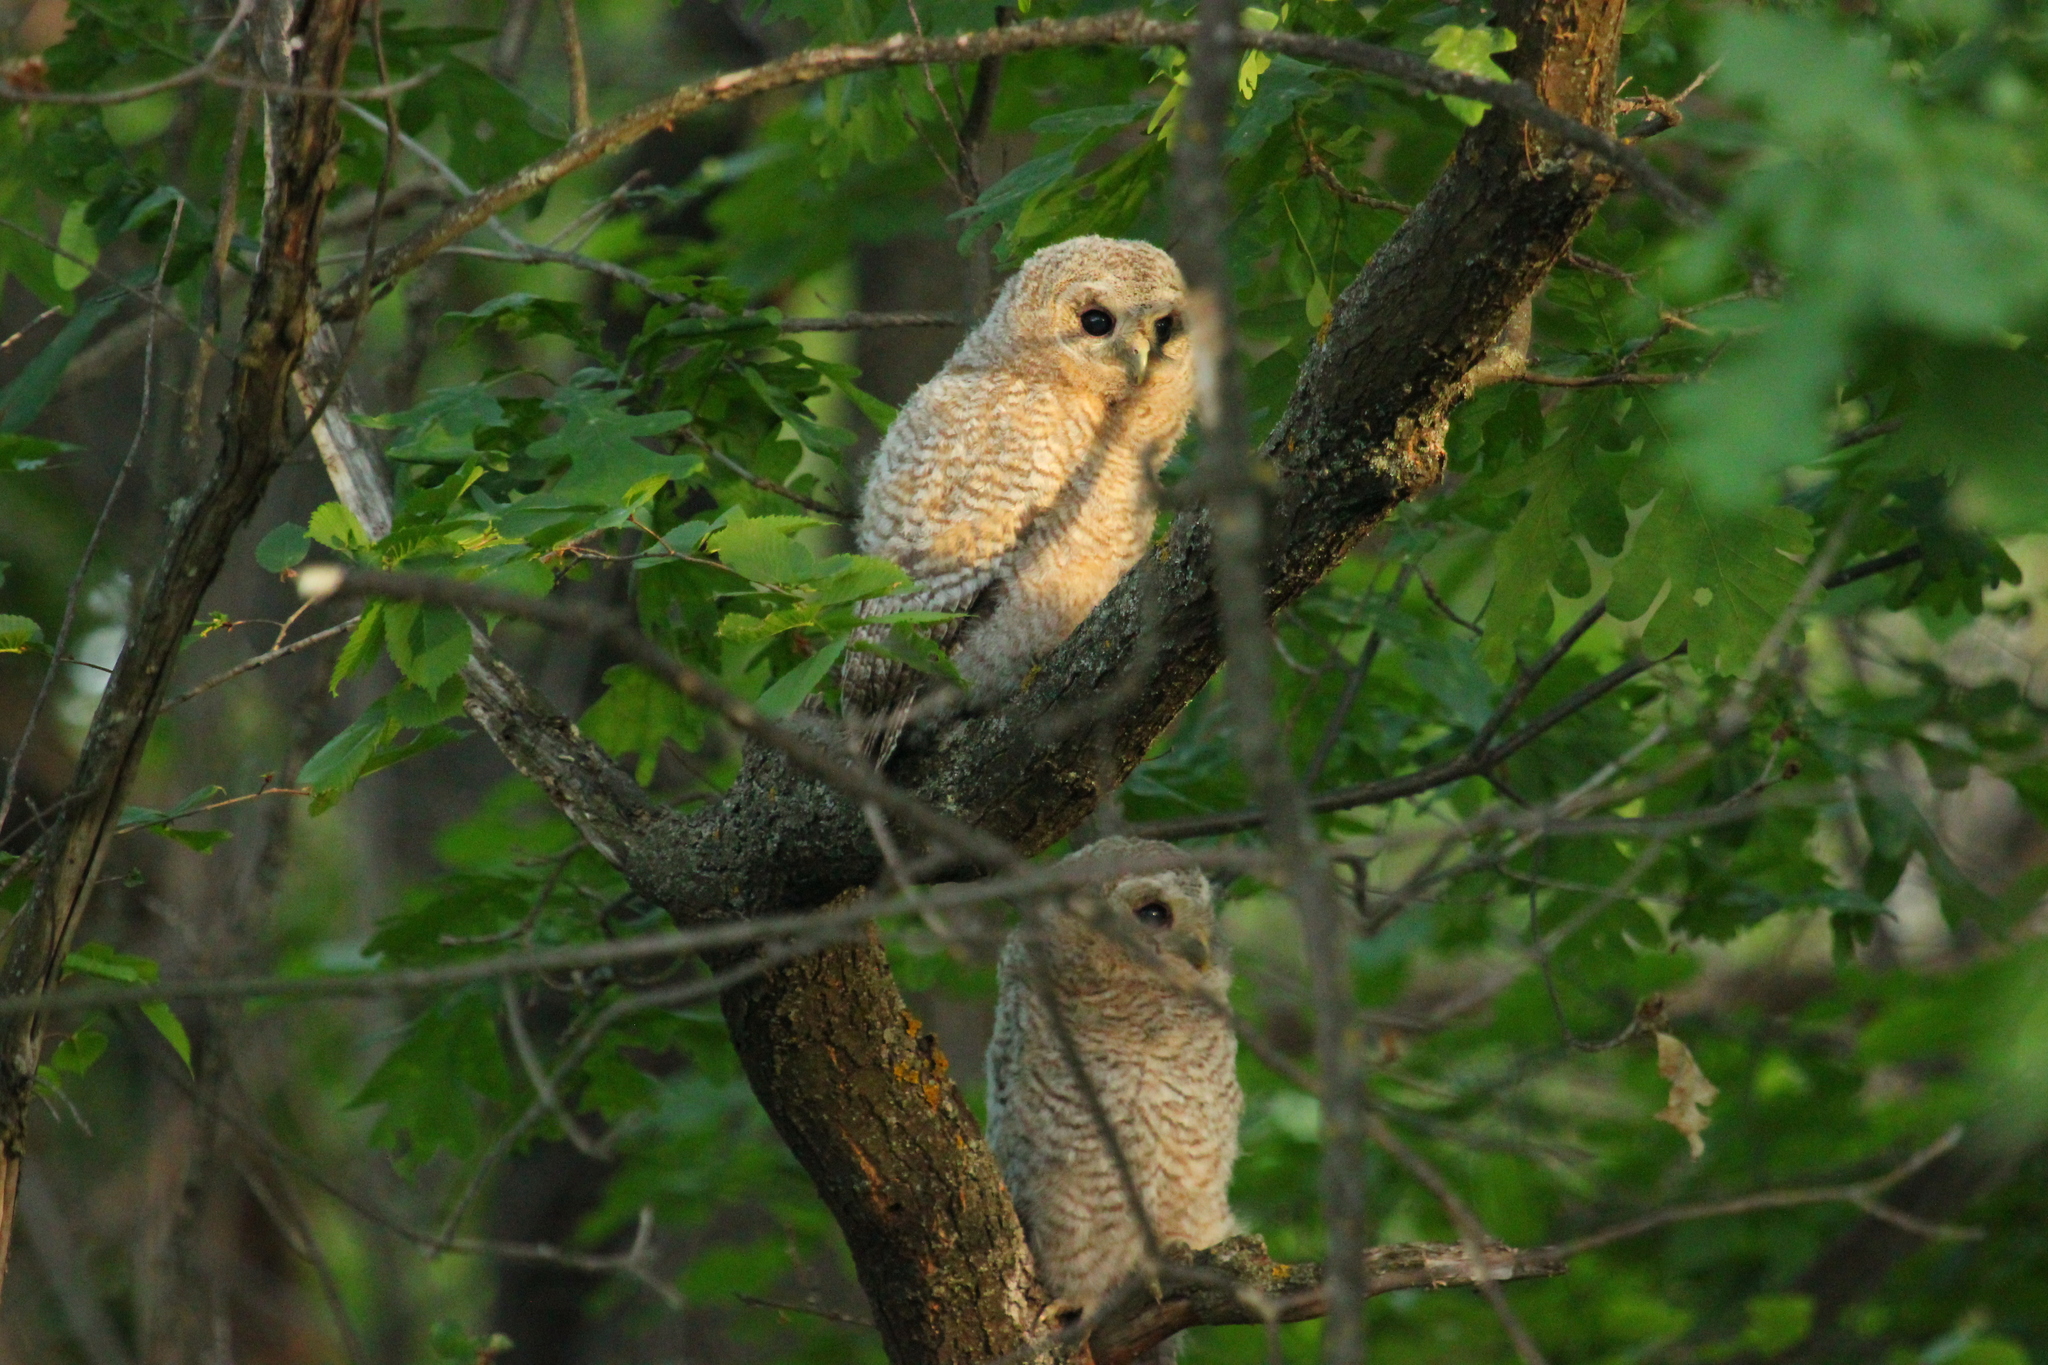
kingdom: Animalia
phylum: Chordata
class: Aves
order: Strigiformes
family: Strigidae
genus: Strix
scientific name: Strix aluco
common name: Tawny owl
